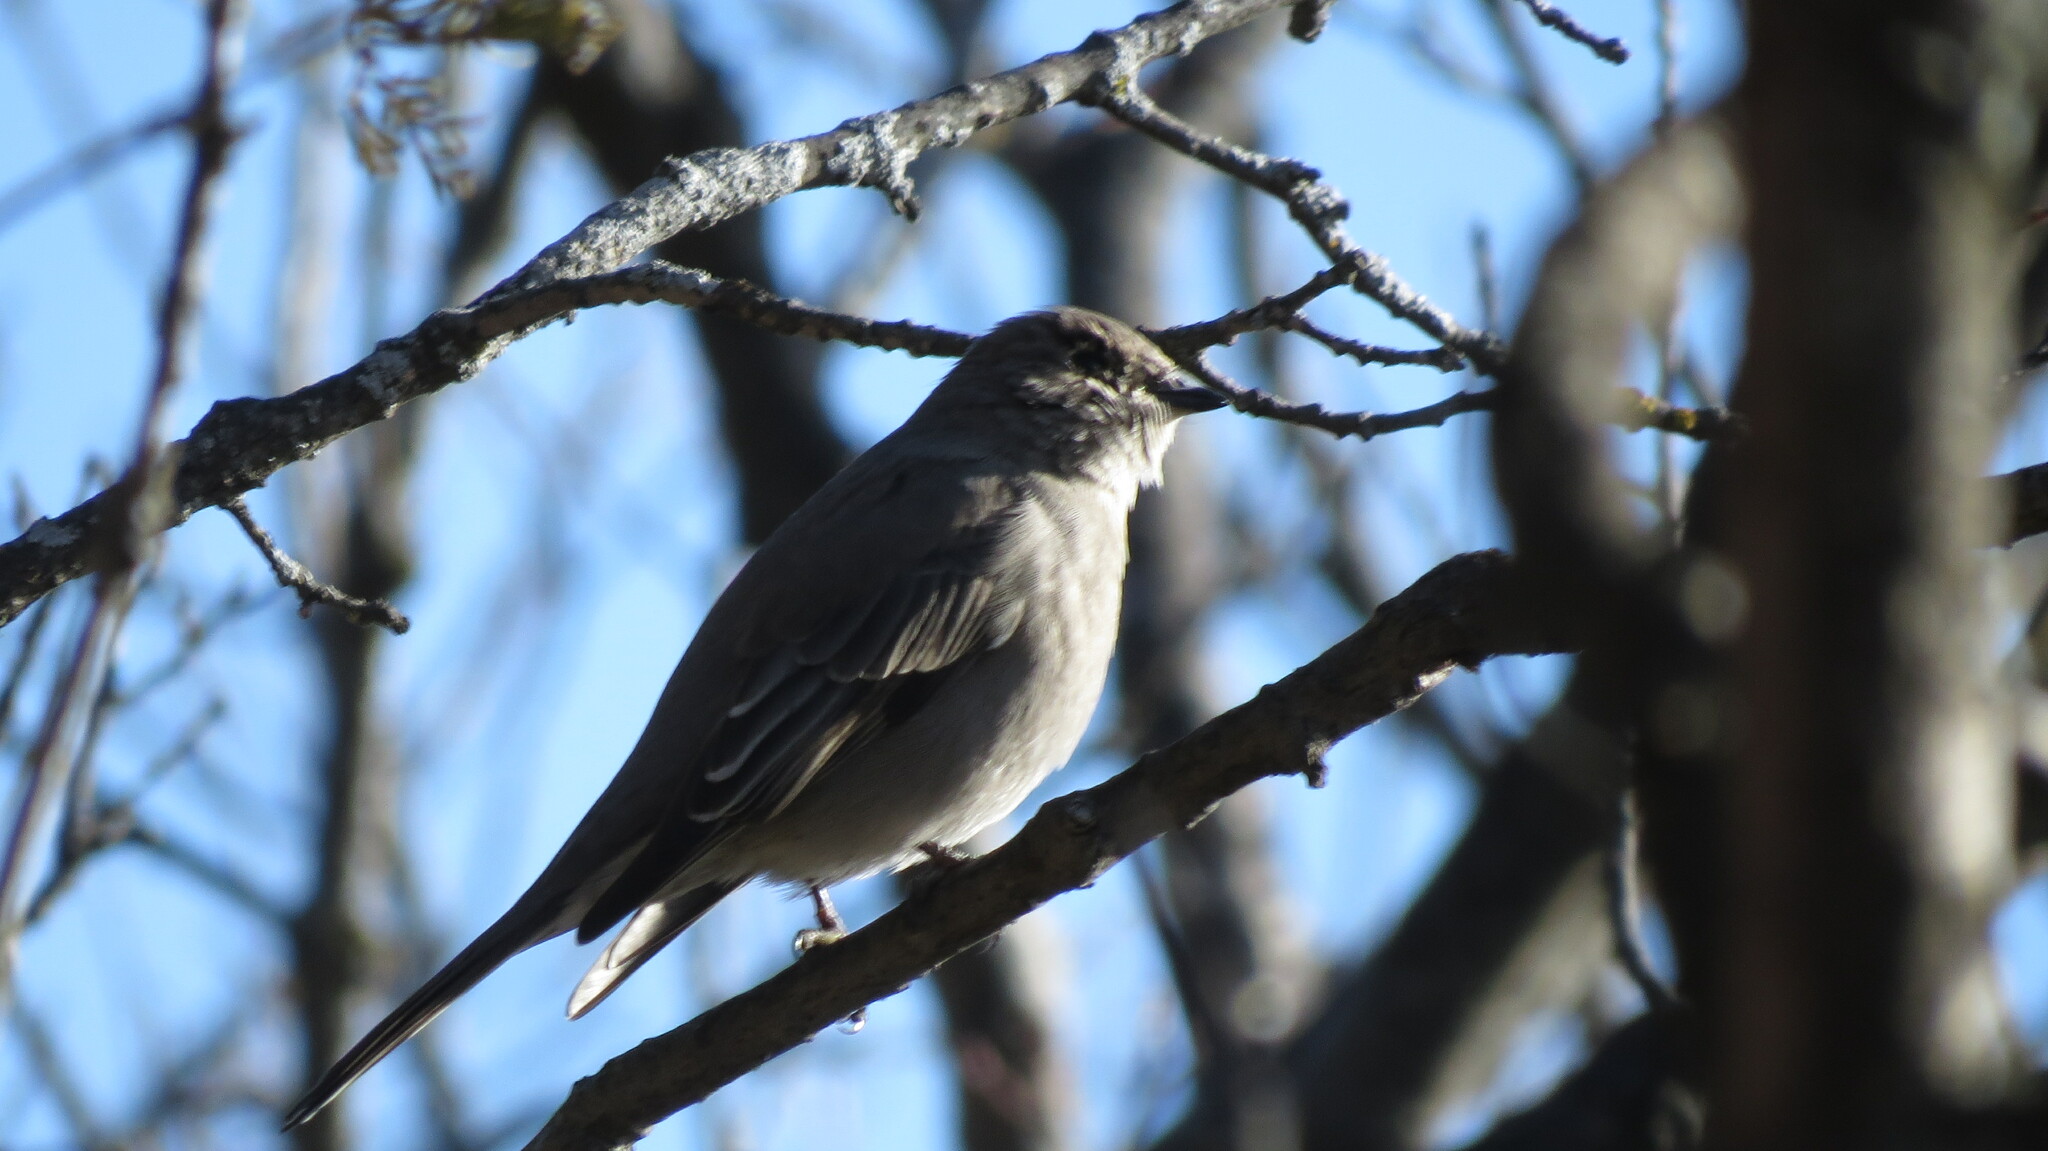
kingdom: Animalia
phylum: Chordata
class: Aves
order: Passeriformes
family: Turdidae
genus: Myadestes
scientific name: Myadestes townsendi
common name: Townsend's solitaire
